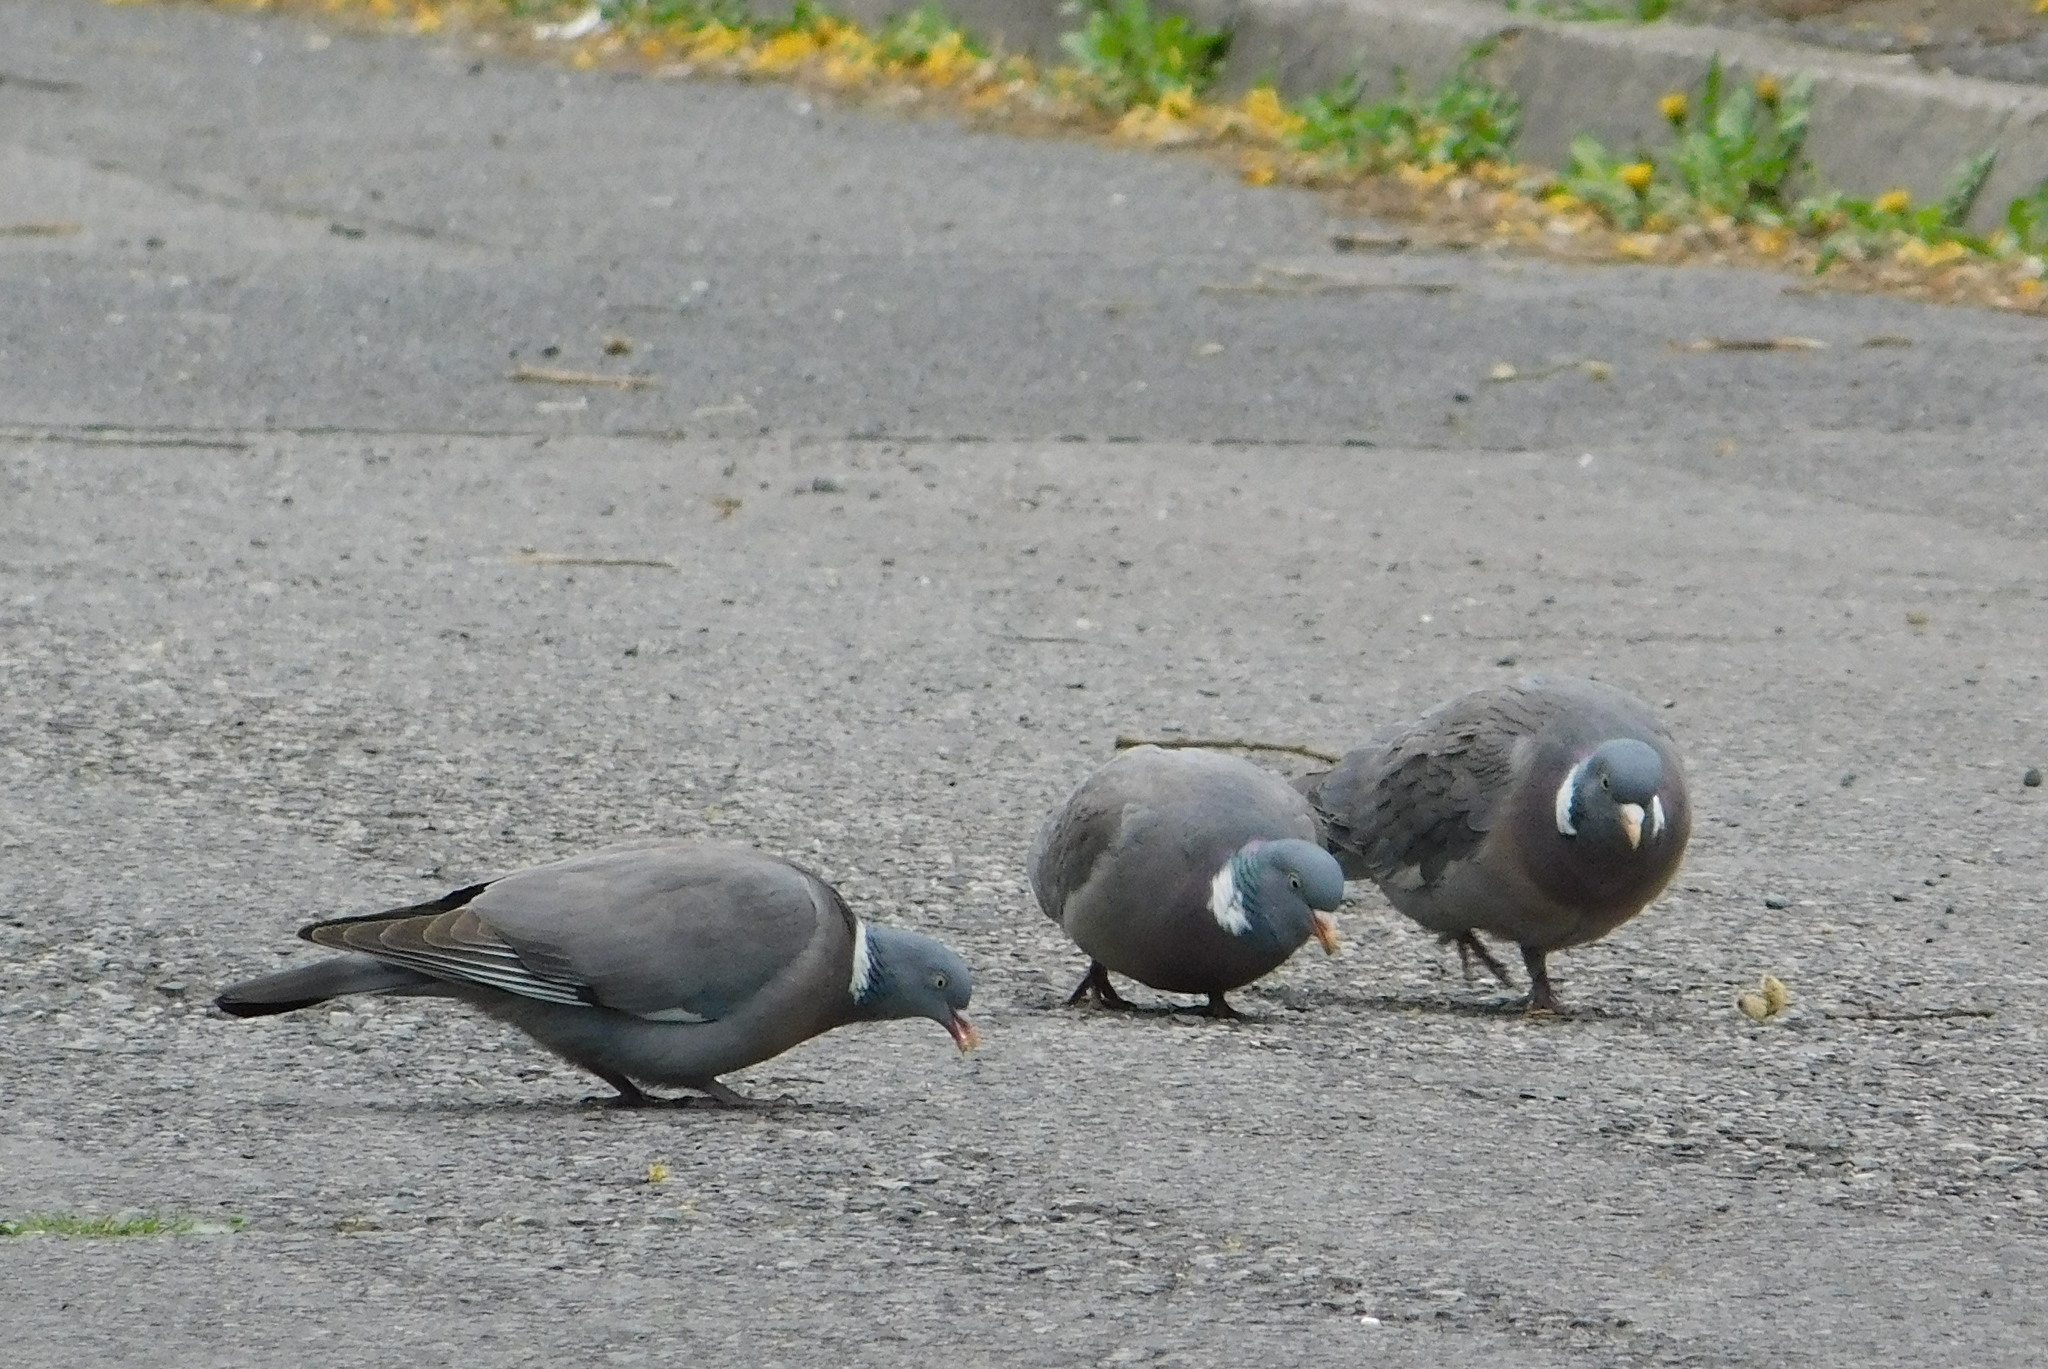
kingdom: Animalia
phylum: Chordata
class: Aves
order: Columbiformes
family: Columbidae
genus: Columba
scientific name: Columba palumbus
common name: Common wood pigeon
